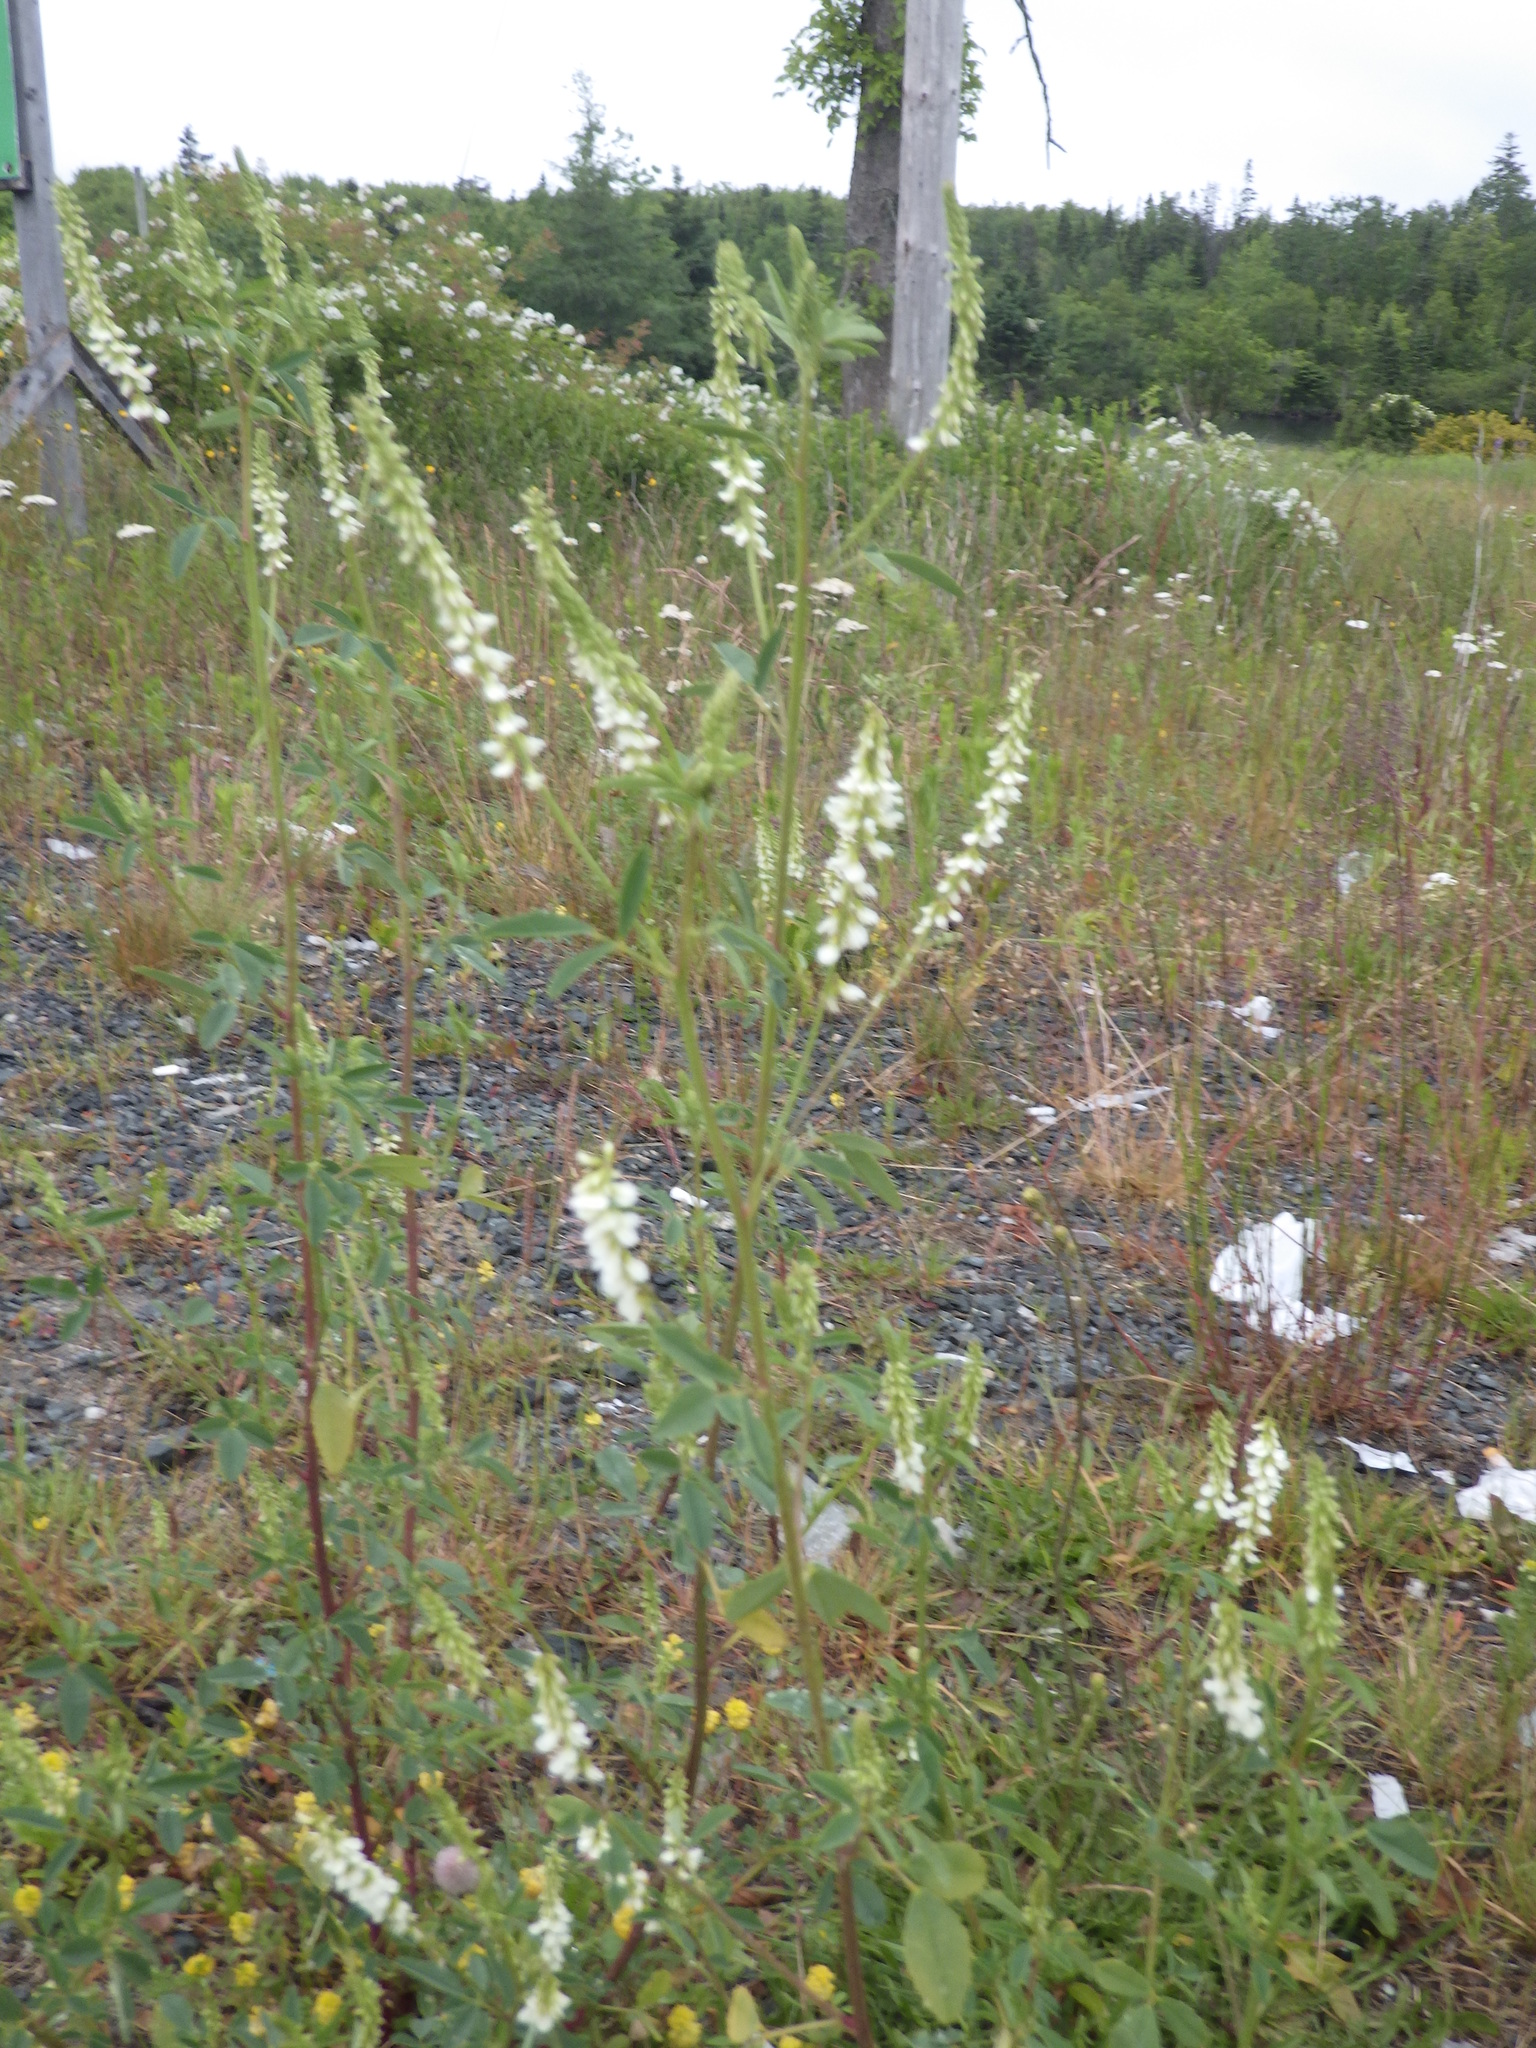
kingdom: Plantae
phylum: Tracheophyta
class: Magnoliopsida
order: Fabales
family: Fabaceae
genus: Melilotus
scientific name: Melilotus albus
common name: White melilot
